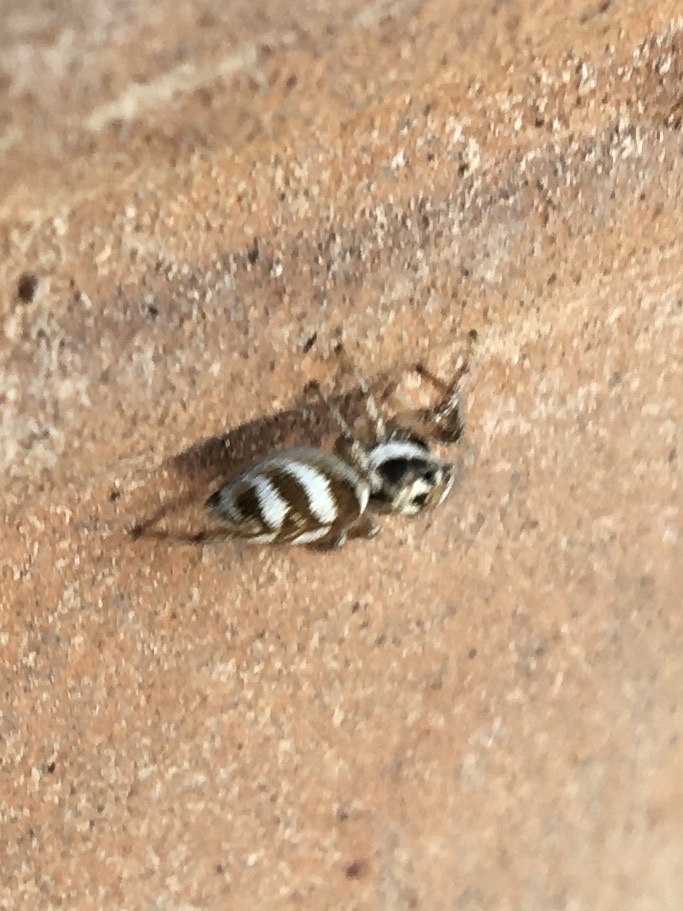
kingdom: Animalia
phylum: Arthropoda
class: Arachnida
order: Araneae
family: Salticidae
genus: Salticus
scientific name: Salticus scenicus
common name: Zebra jumper
